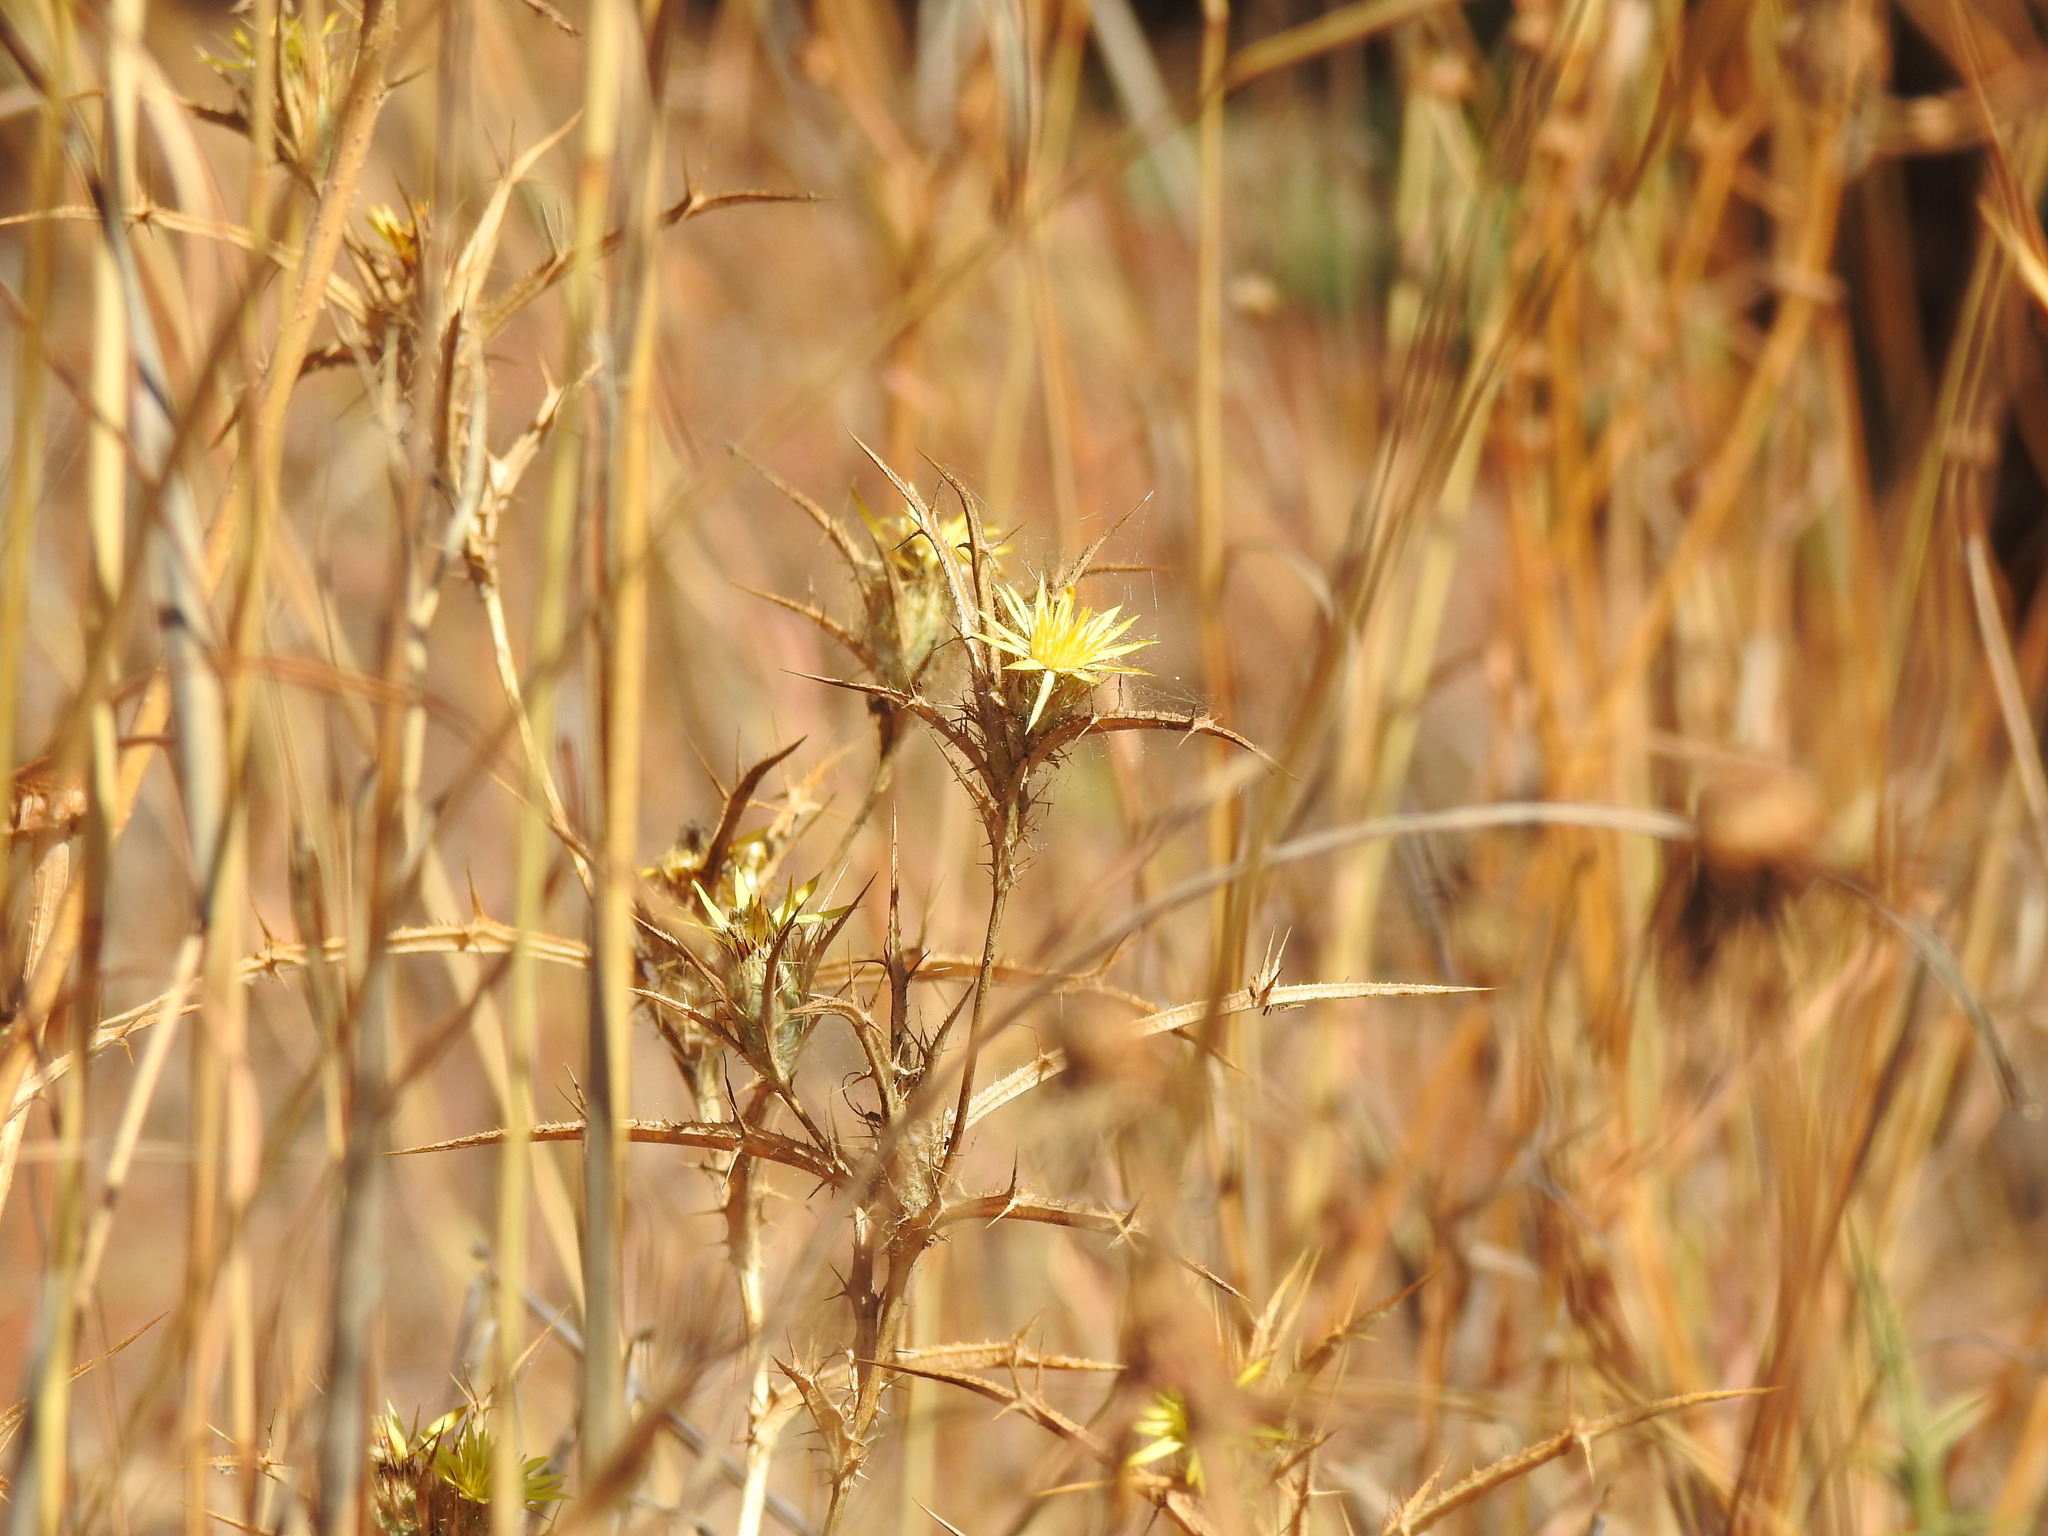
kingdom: Plantae
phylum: Tracheophyta
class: Magnoliopsida
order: Asterales
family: Asteraceae
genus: Carlina
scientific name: Carlina racemosa
